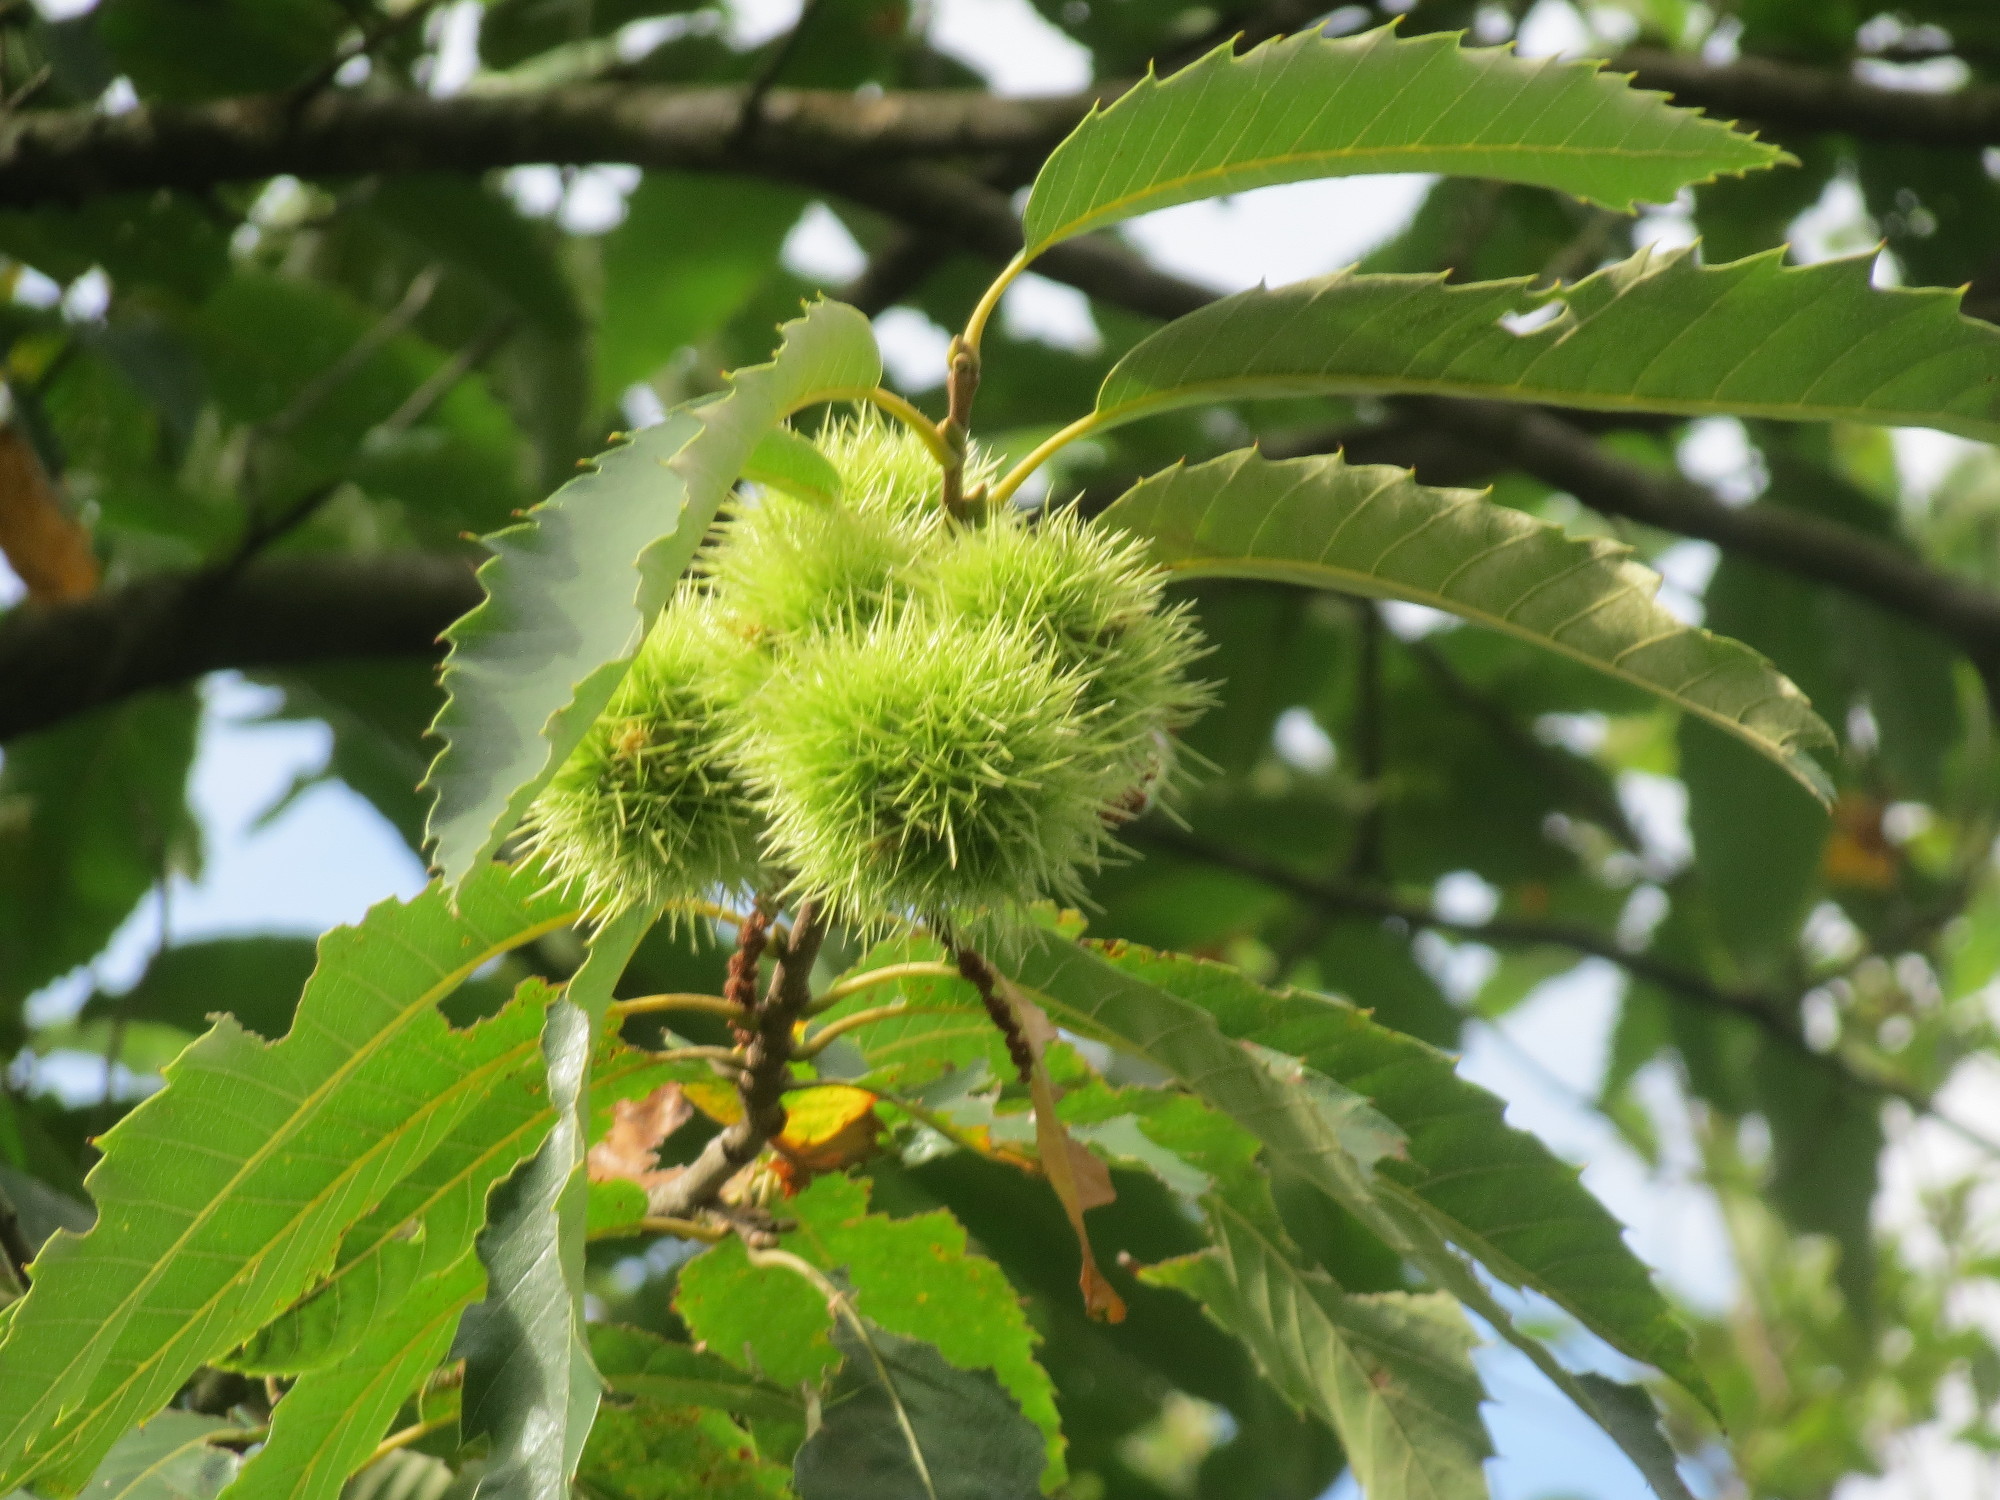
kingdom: Plantae
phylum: Tracheophyta
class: Magnoliopsida
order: Fagales
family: Fagaceae
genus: Castanea
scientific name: Castanea sativa
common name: Sweet chestnut
